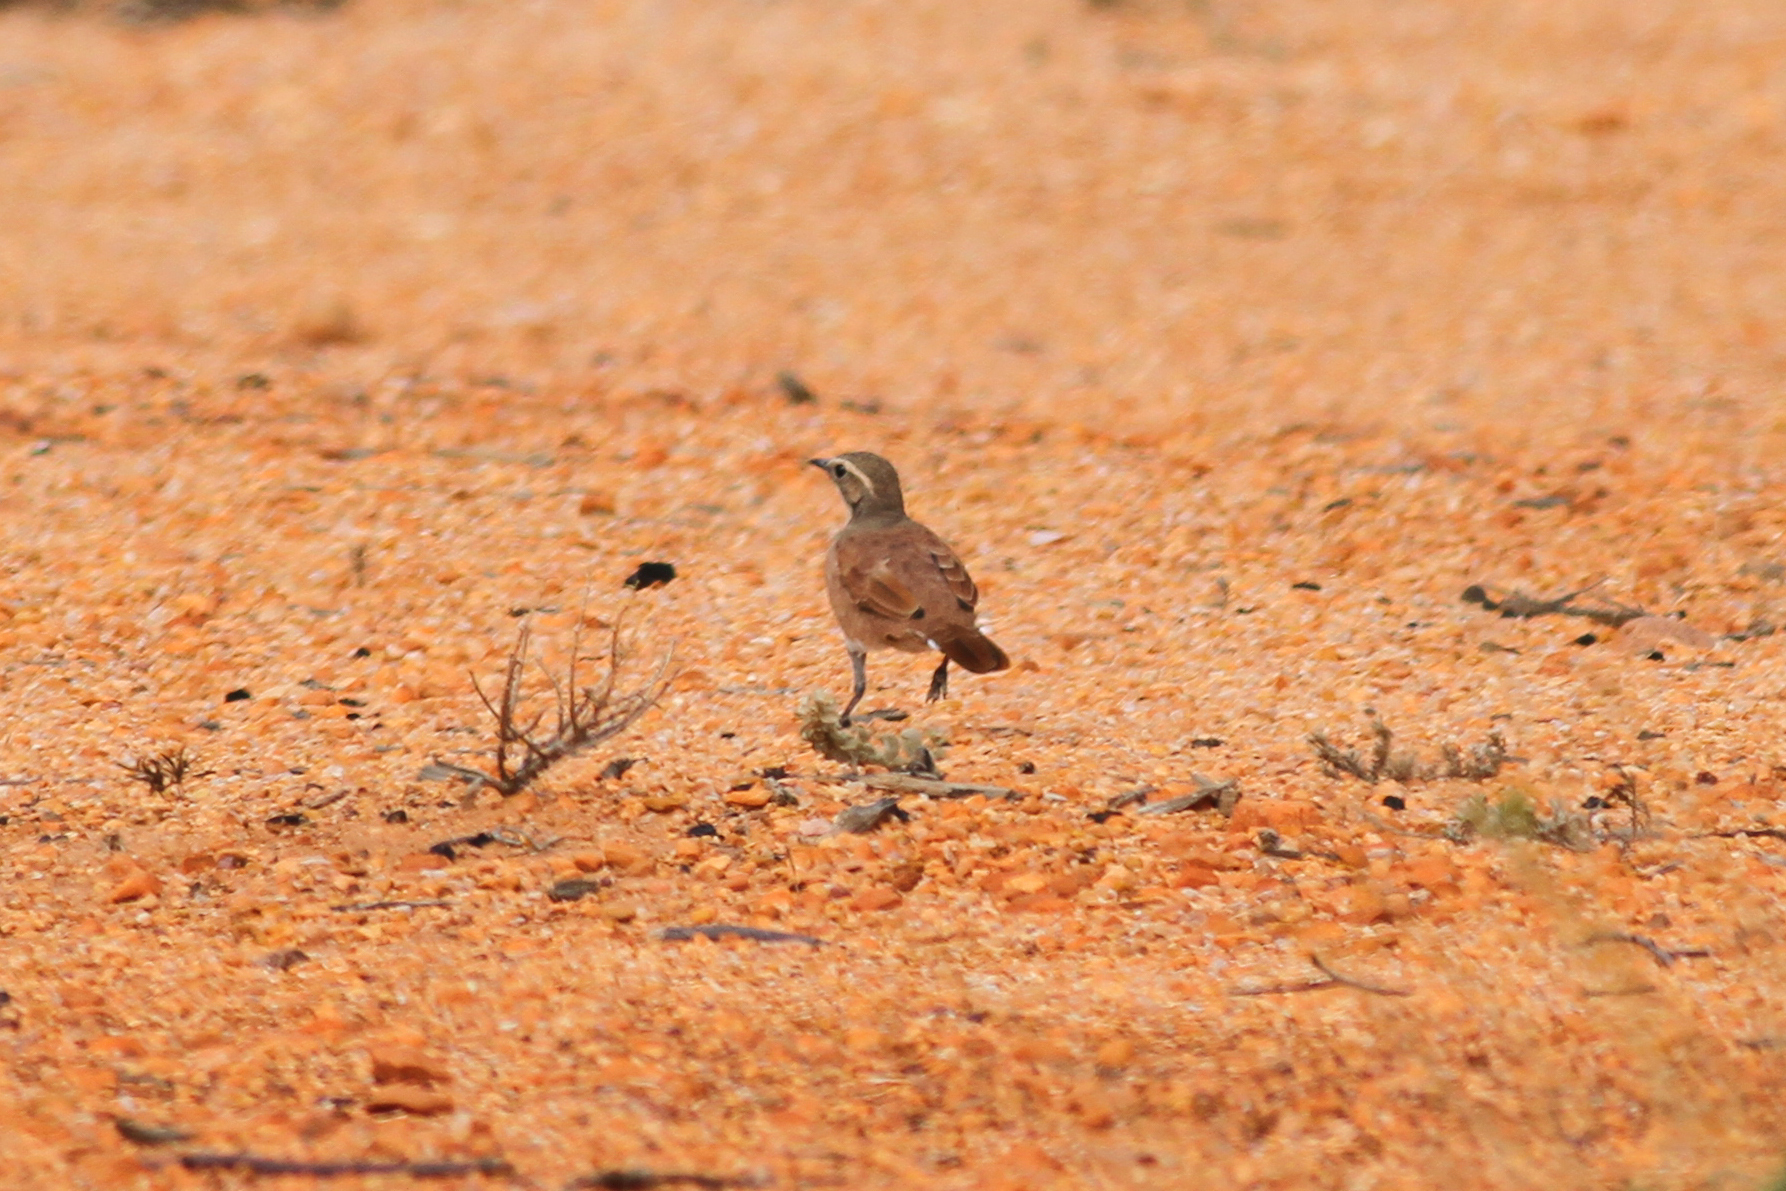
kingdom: Animalia
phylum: Chordata
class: Aves
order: Passeriformes
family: Psophodidae
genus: Cinclosoma
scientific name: Cinclosoma cinnamomeum
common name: Cinnamon quail-thrush
